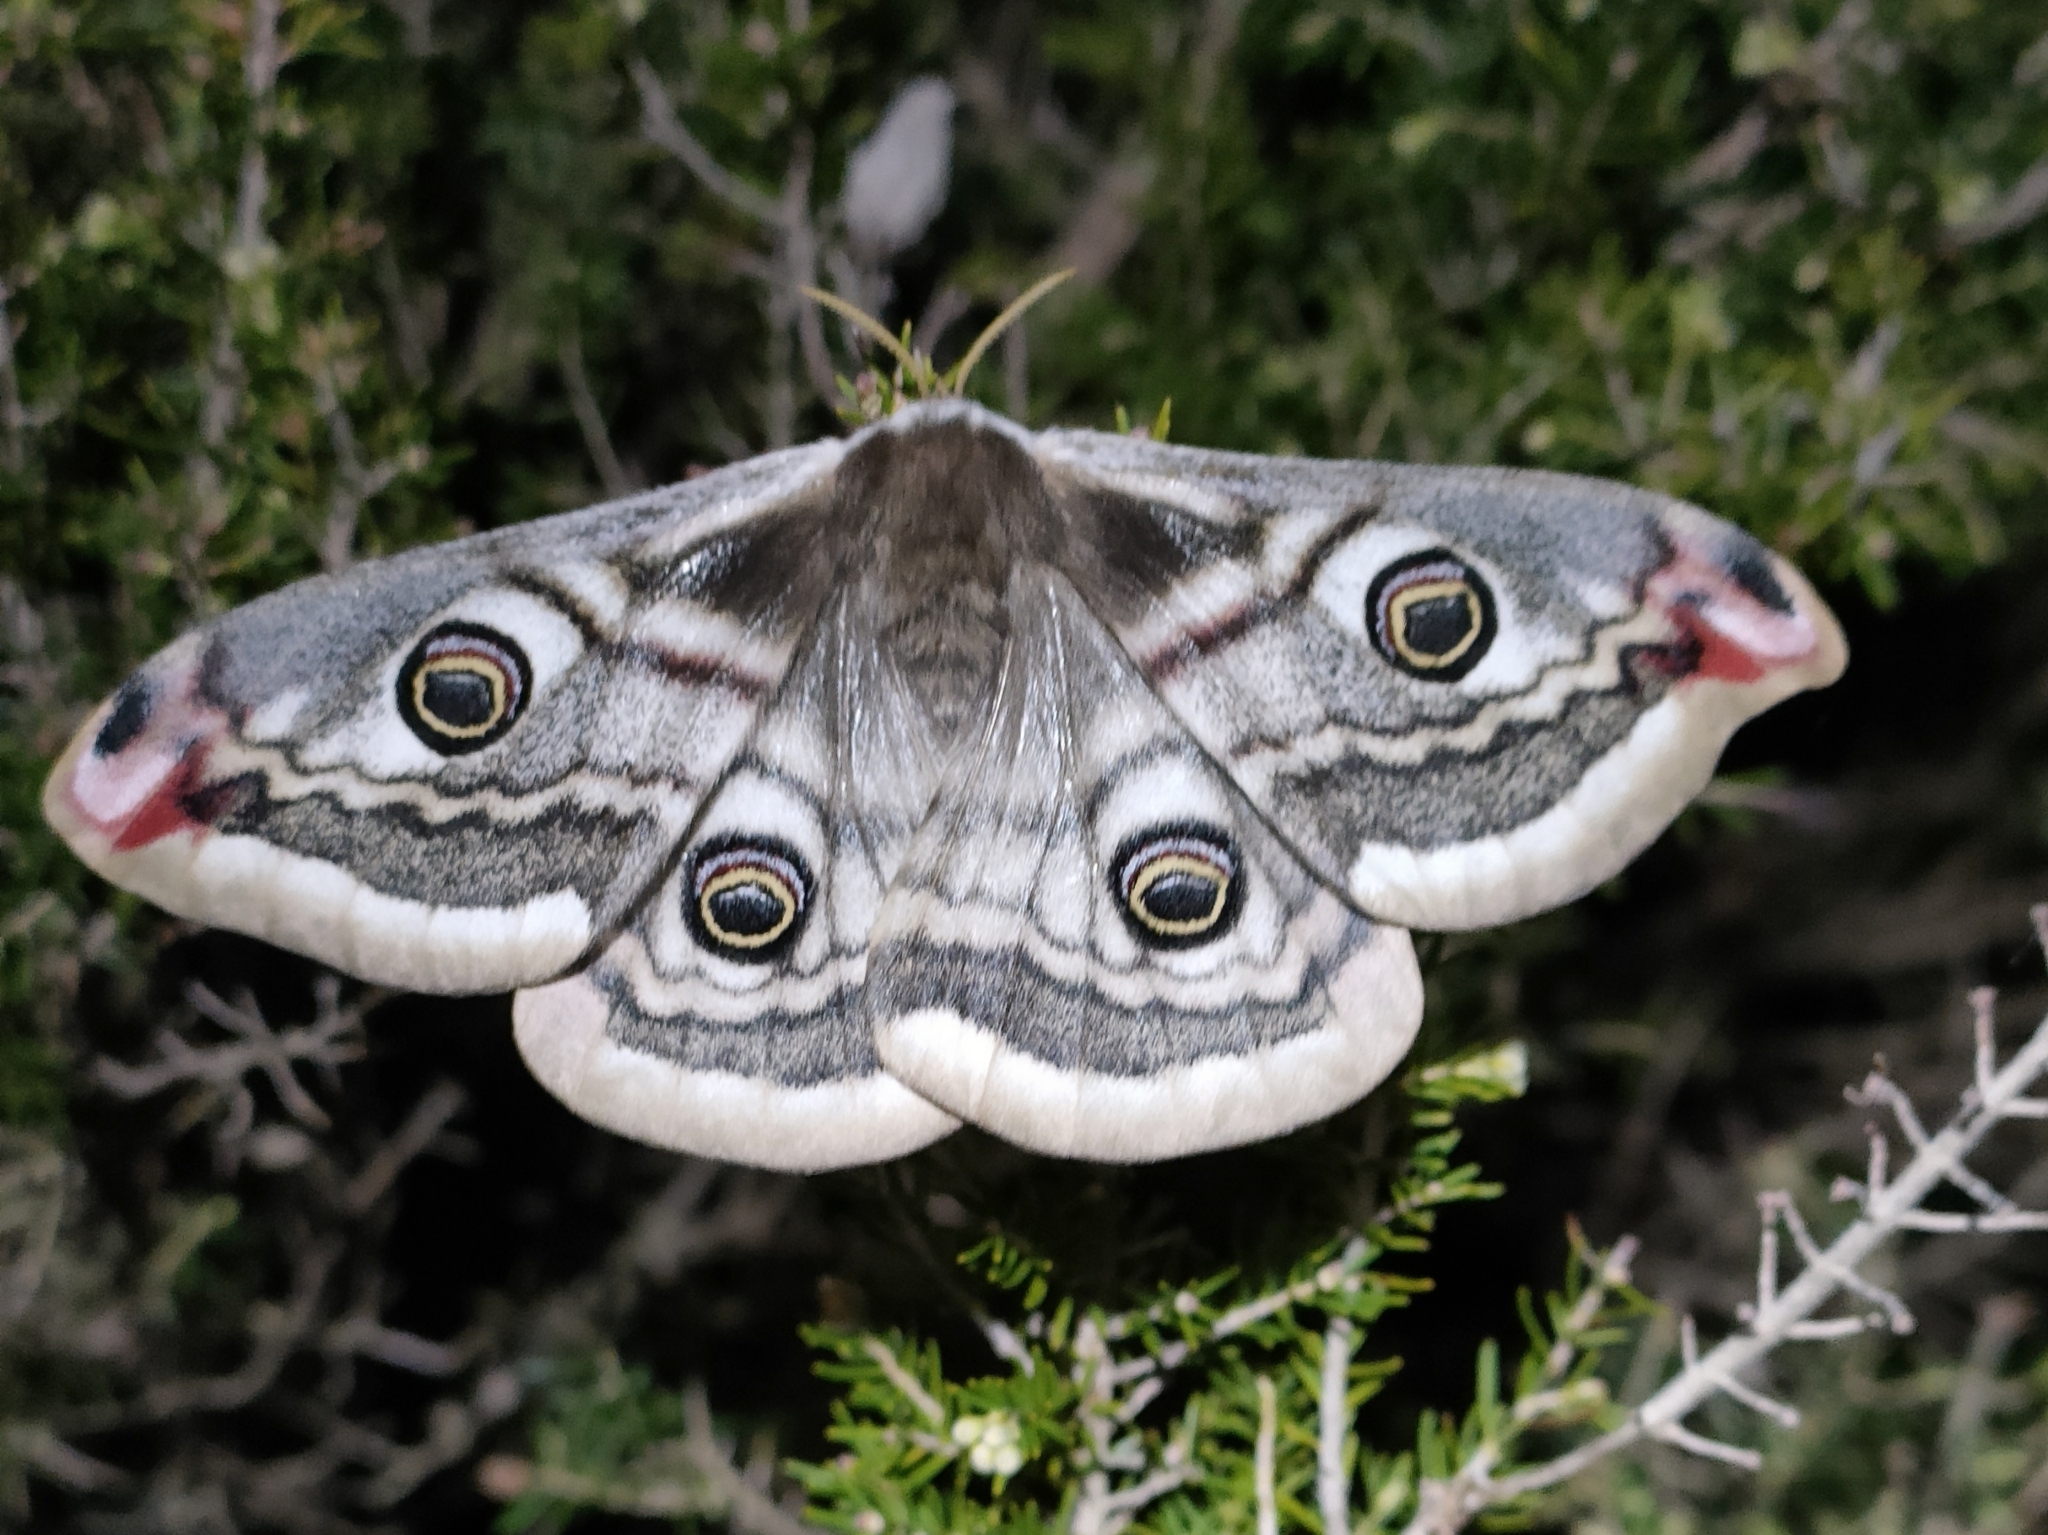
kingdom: Animalia
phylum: Arthropoda
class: Insecta
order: Lepidoptera
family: Saturniidae
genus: Saturnia
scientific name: Saturnia pavonia
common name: Emperor moth
